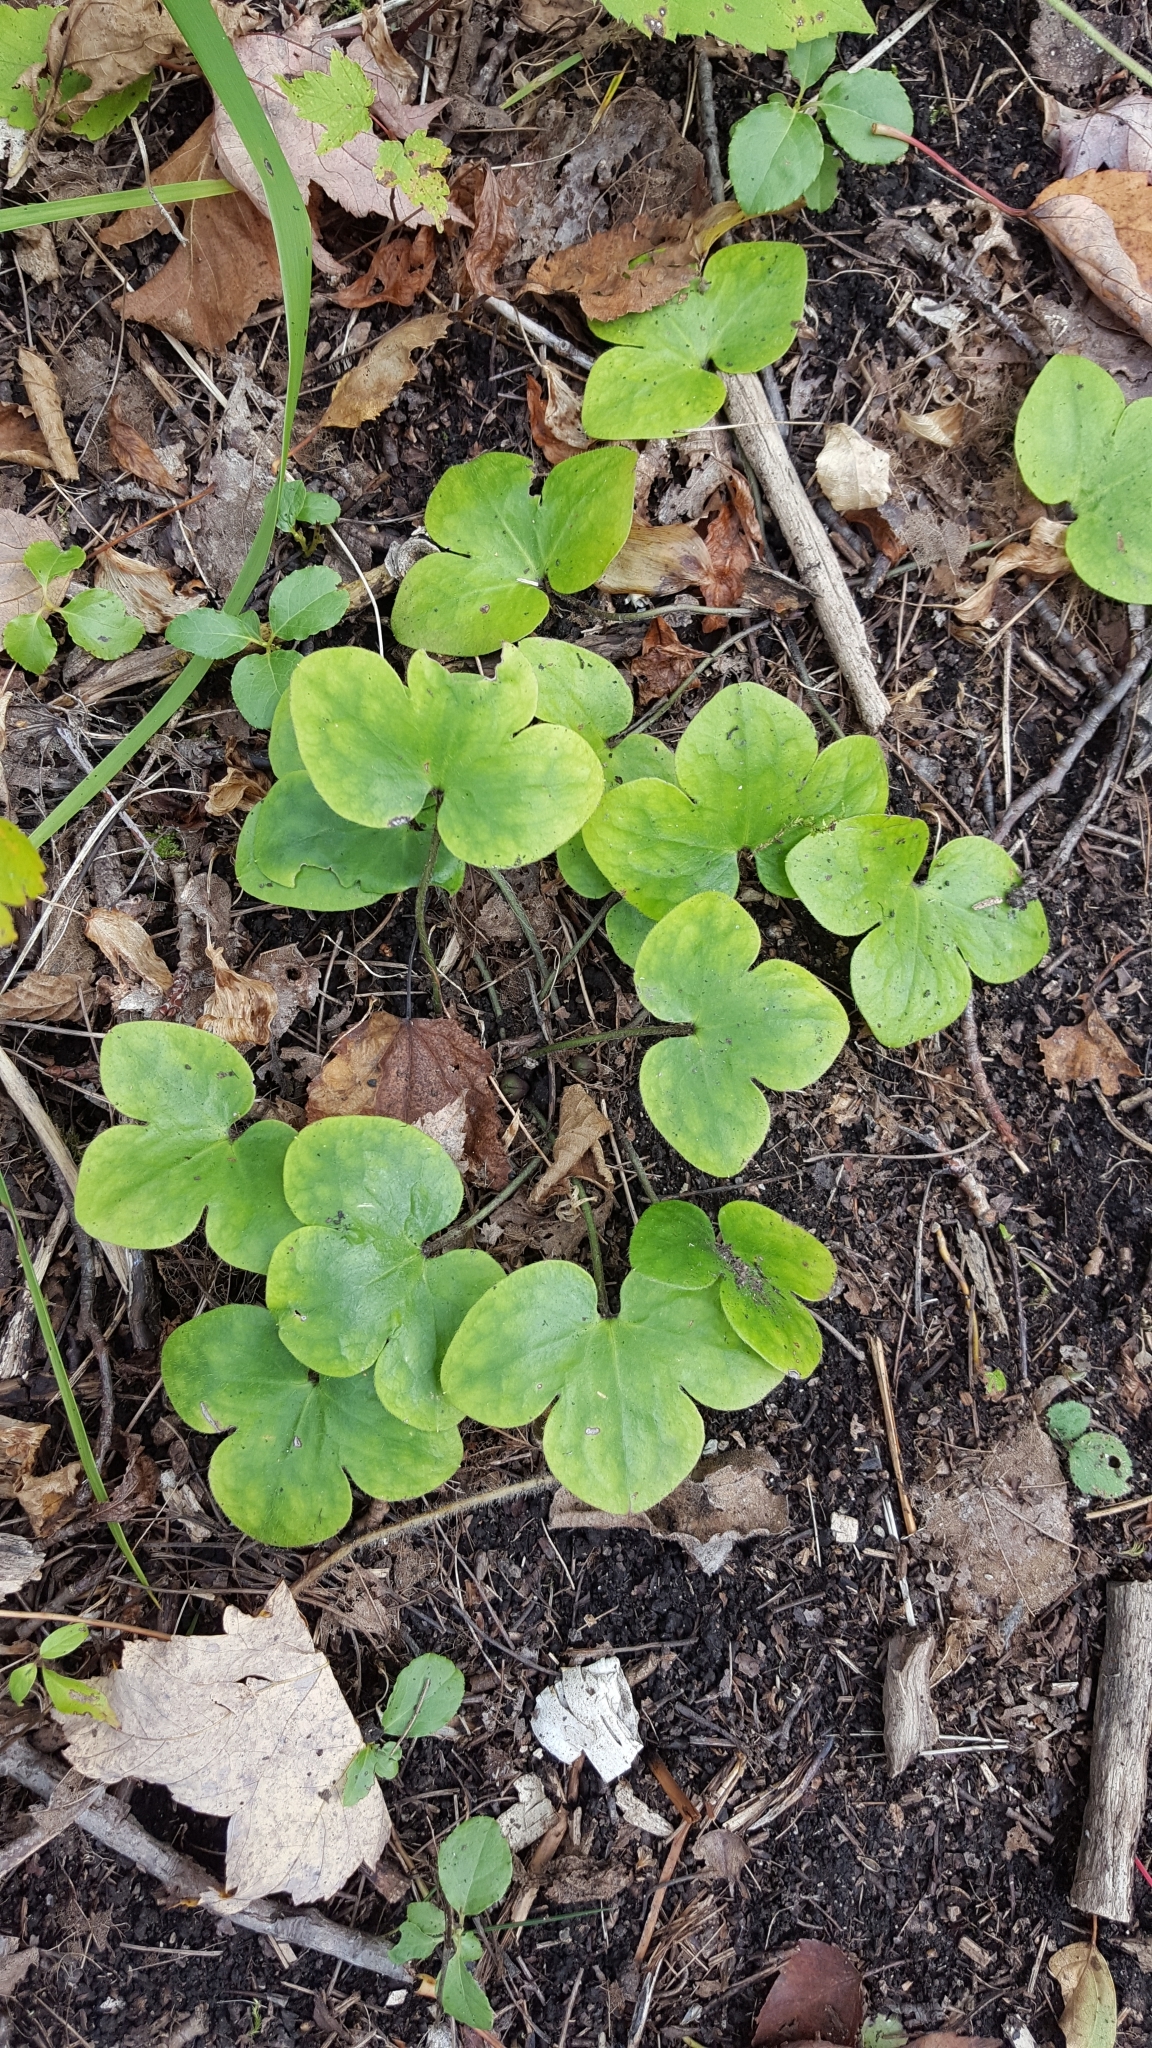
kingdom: Plantae
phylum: Tracheophyta
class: Magnoliopsida
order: Ranunculales
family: Ranunculaceae
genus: Hepatica
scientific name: Hepatica americana
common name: American hepatica
